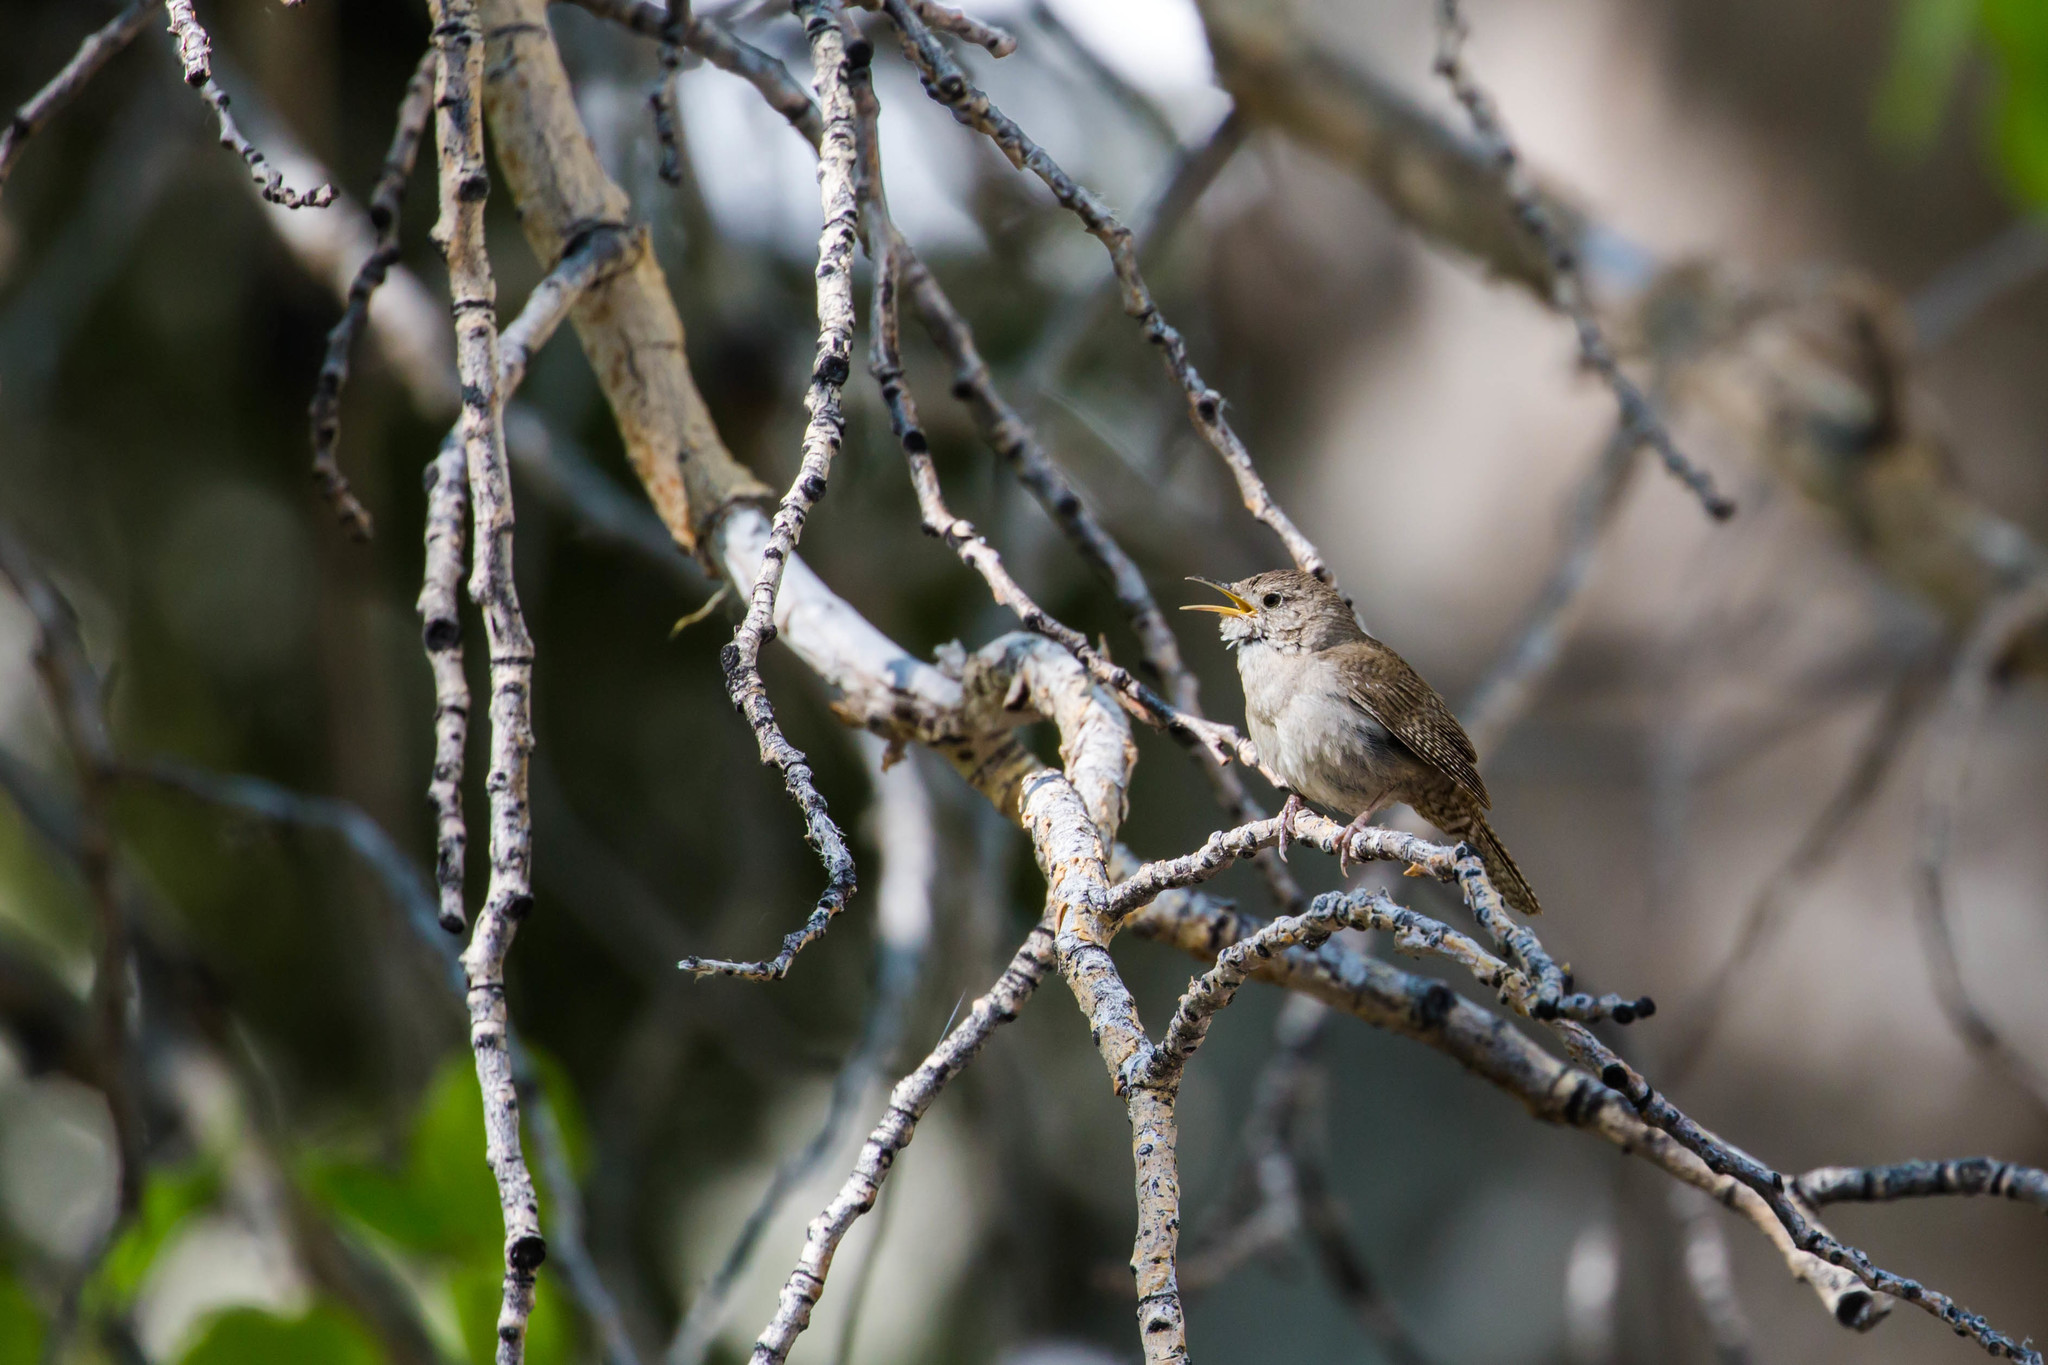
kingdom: Animalia
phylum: Chordata
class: Aves
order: Passeriformes
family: Troglodytidae
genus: Troglodytes
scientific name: Troglodytes aedon
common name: House wren
